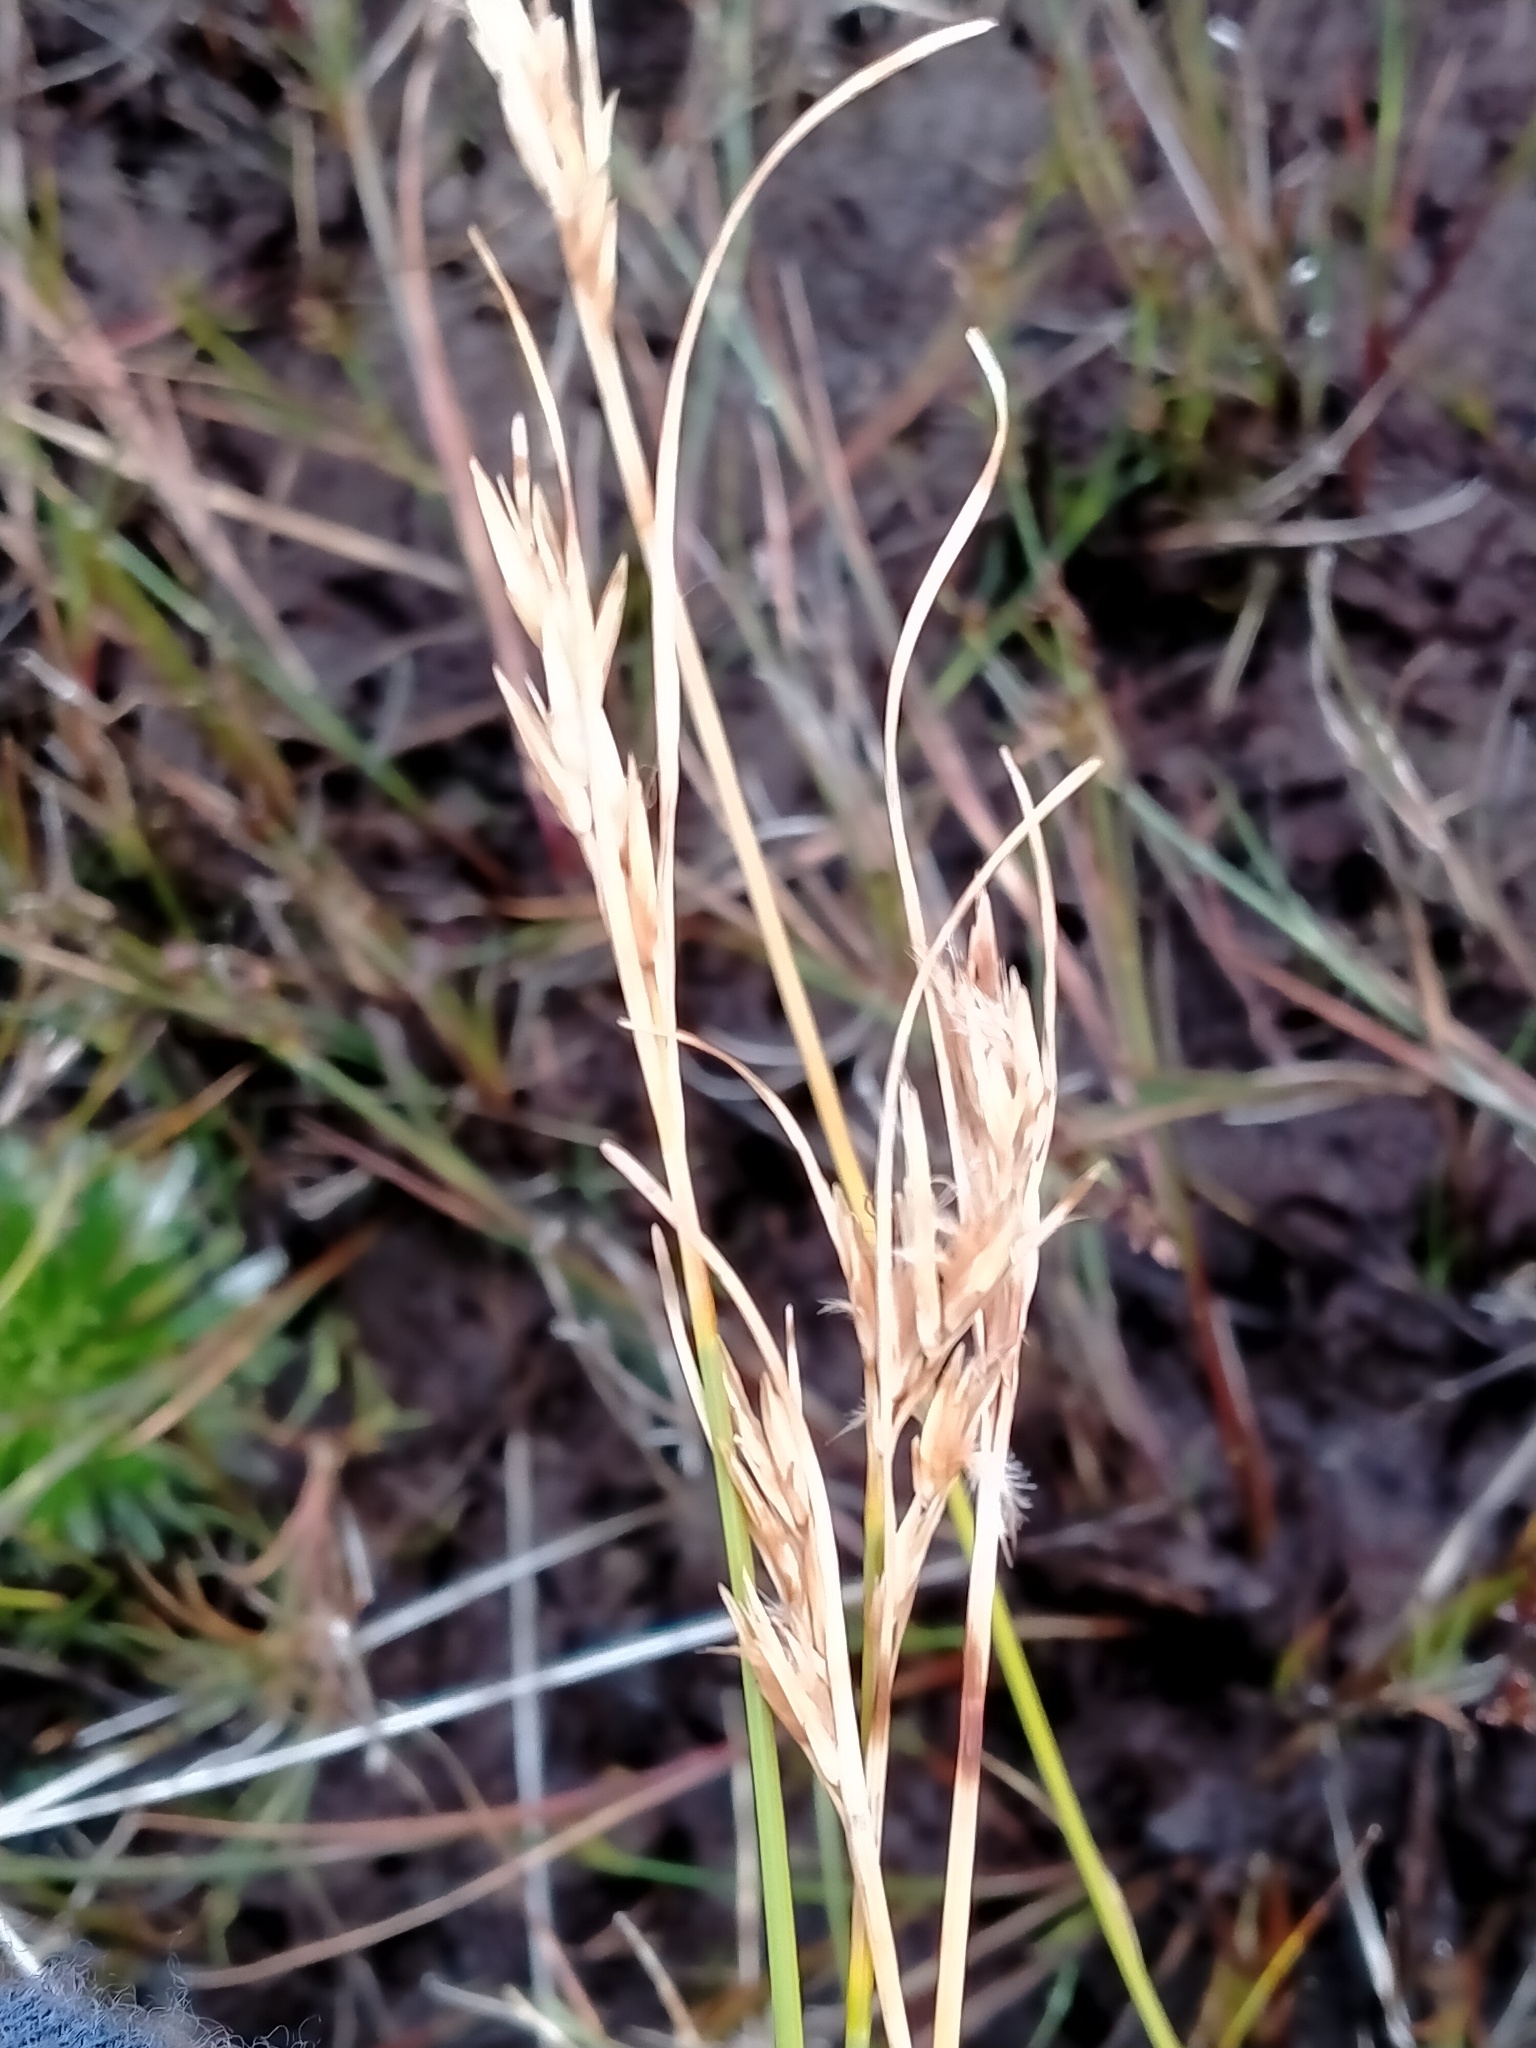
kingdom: Plantae
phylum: Tracheophyta
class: Liliopsida
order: Poales
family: Cyperaceae
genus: Carpha
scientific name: Carpha alpina
